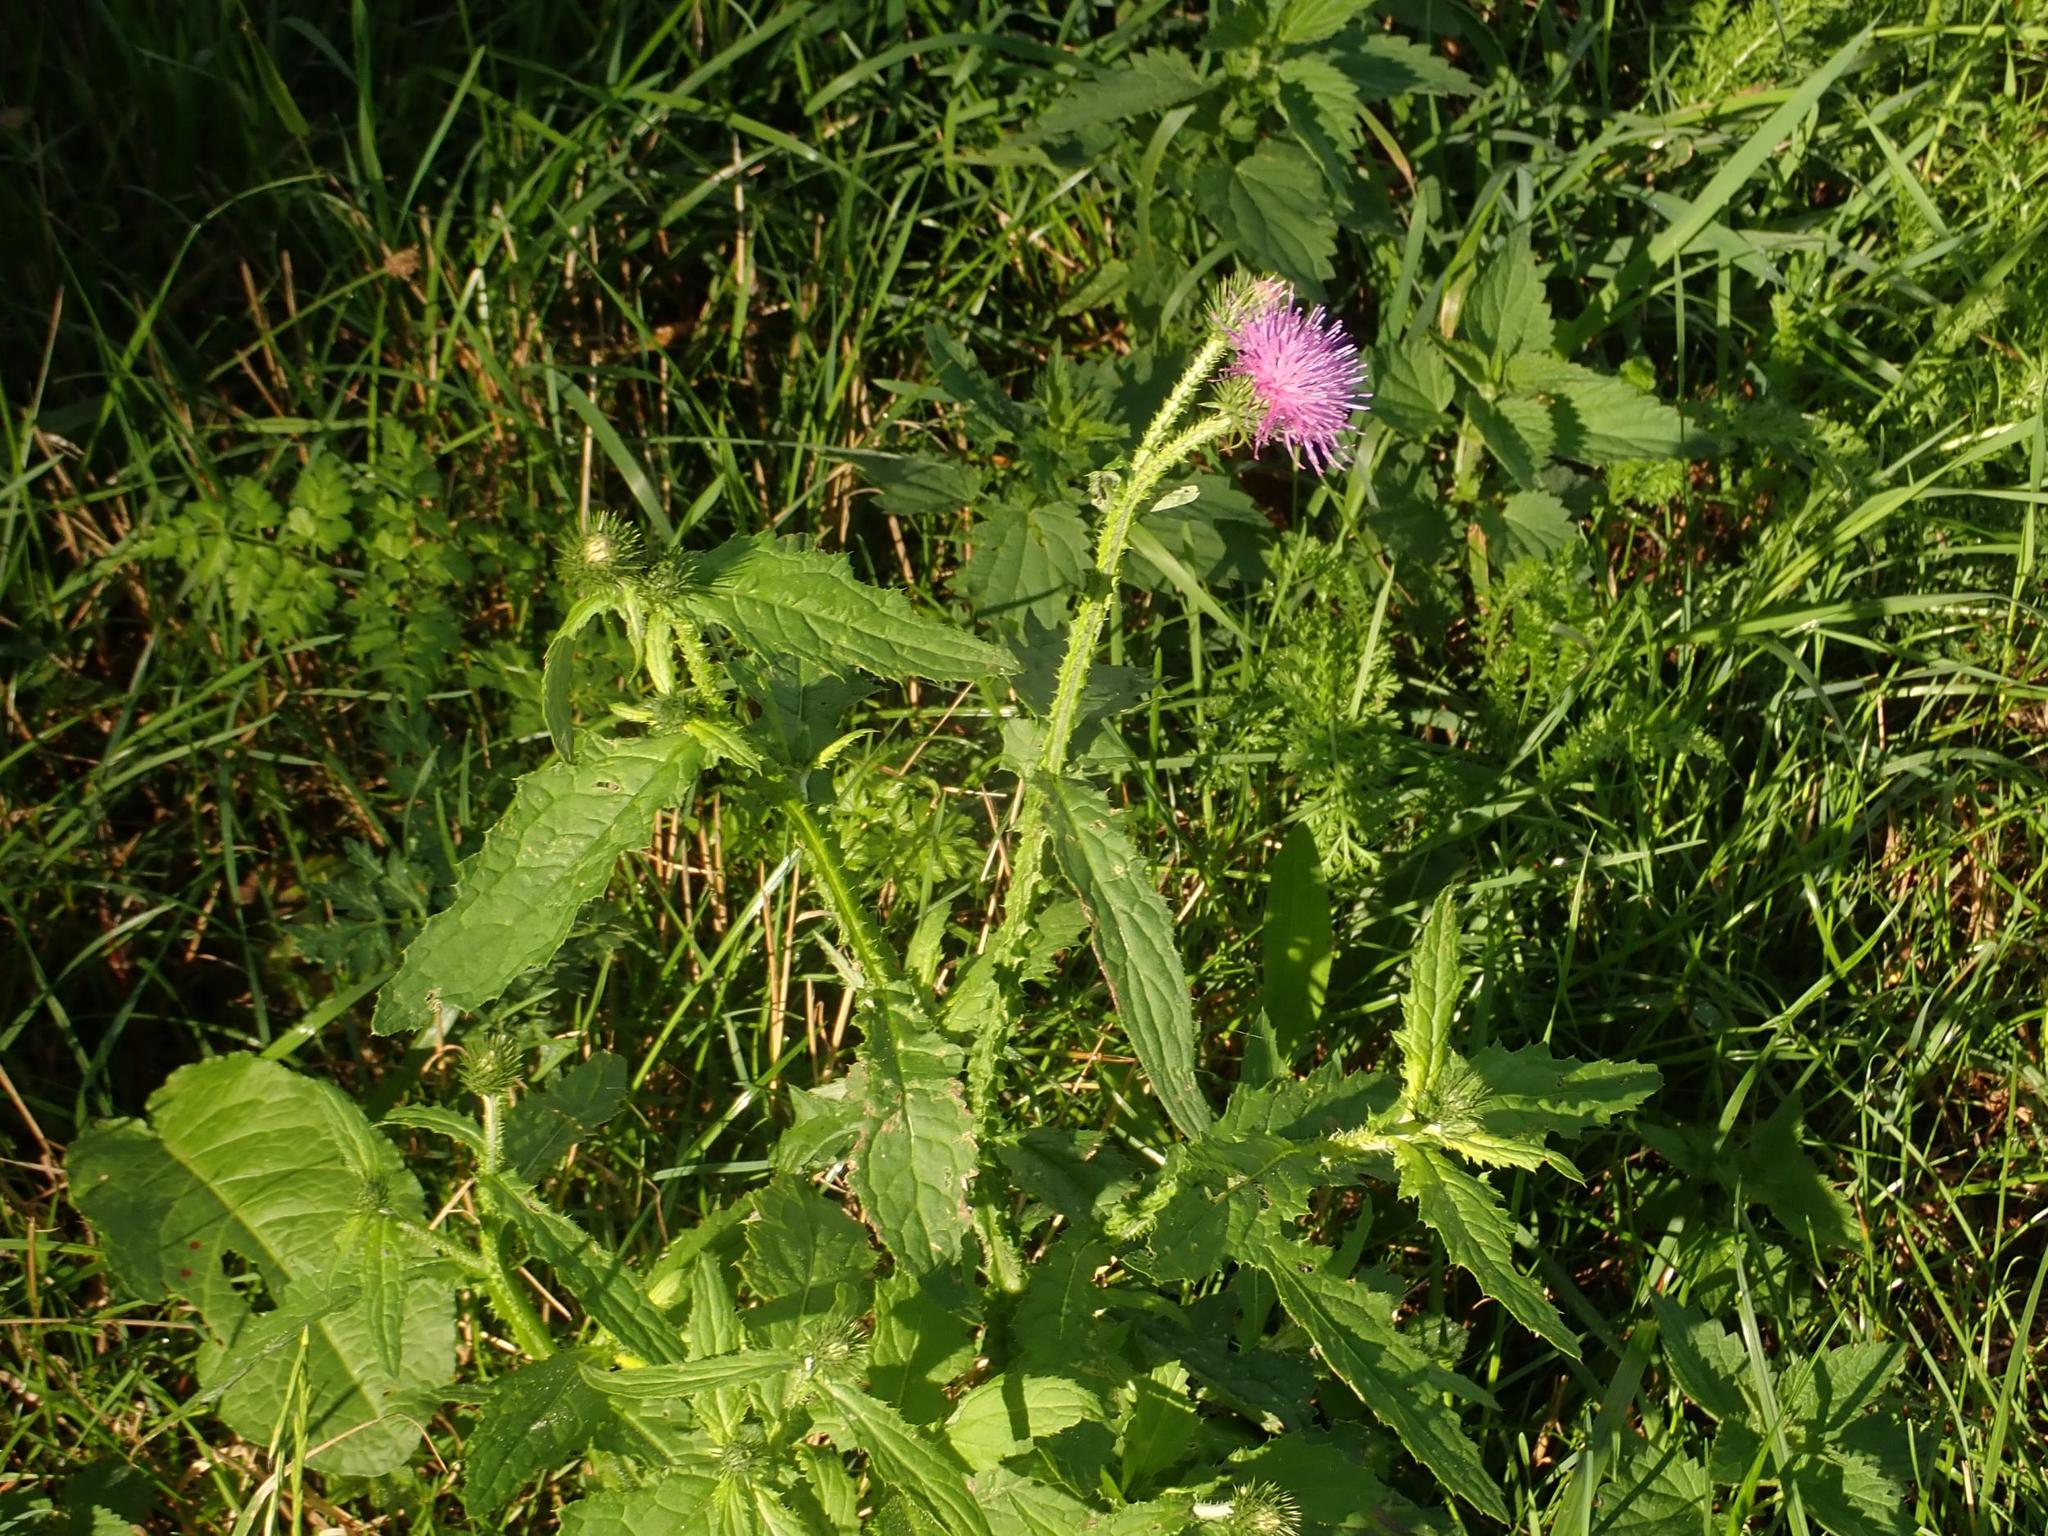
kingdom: Plantae
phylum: Tracheophyta
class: Magnoliopsida
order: Asterales
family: Asteraceae
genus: Carduus
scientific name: Carduus crispus
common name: Welted thistle
